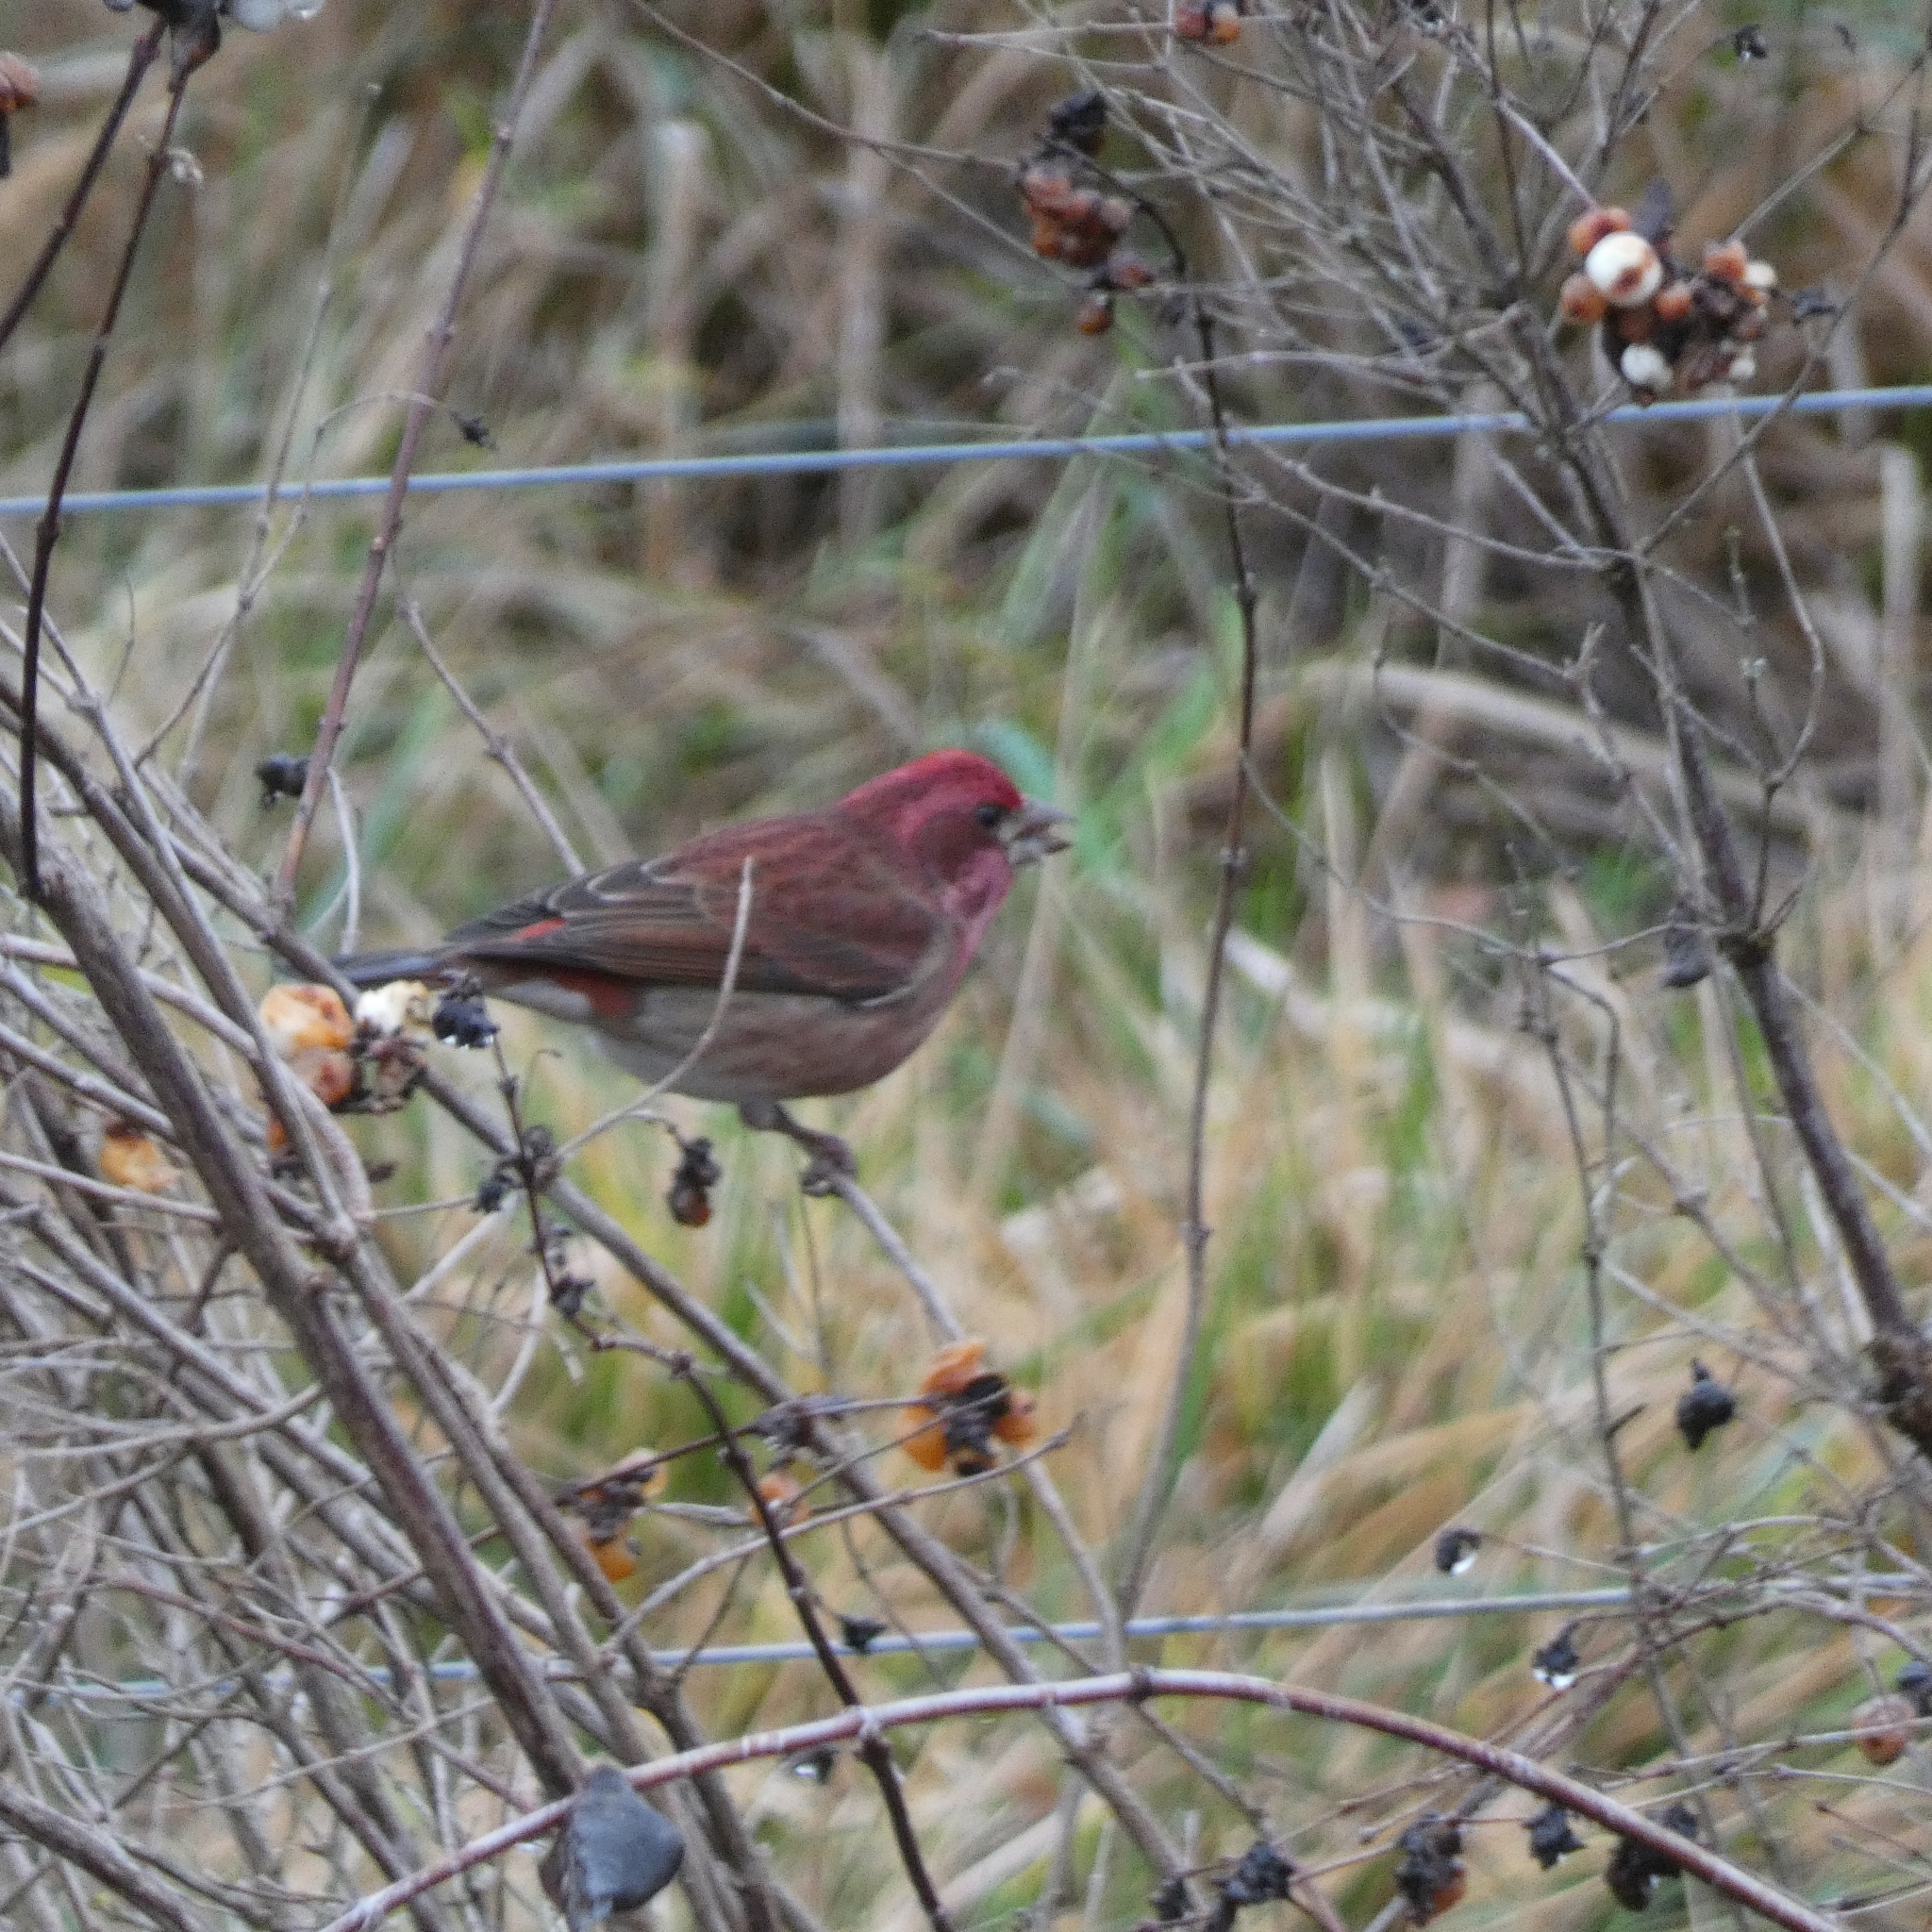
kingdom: Animalia
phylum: Chordata
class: Aves
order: Passeriformes
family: Fringillidae
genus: Haemorhous
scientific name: Haemorhous purpureus
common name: Purple finch
